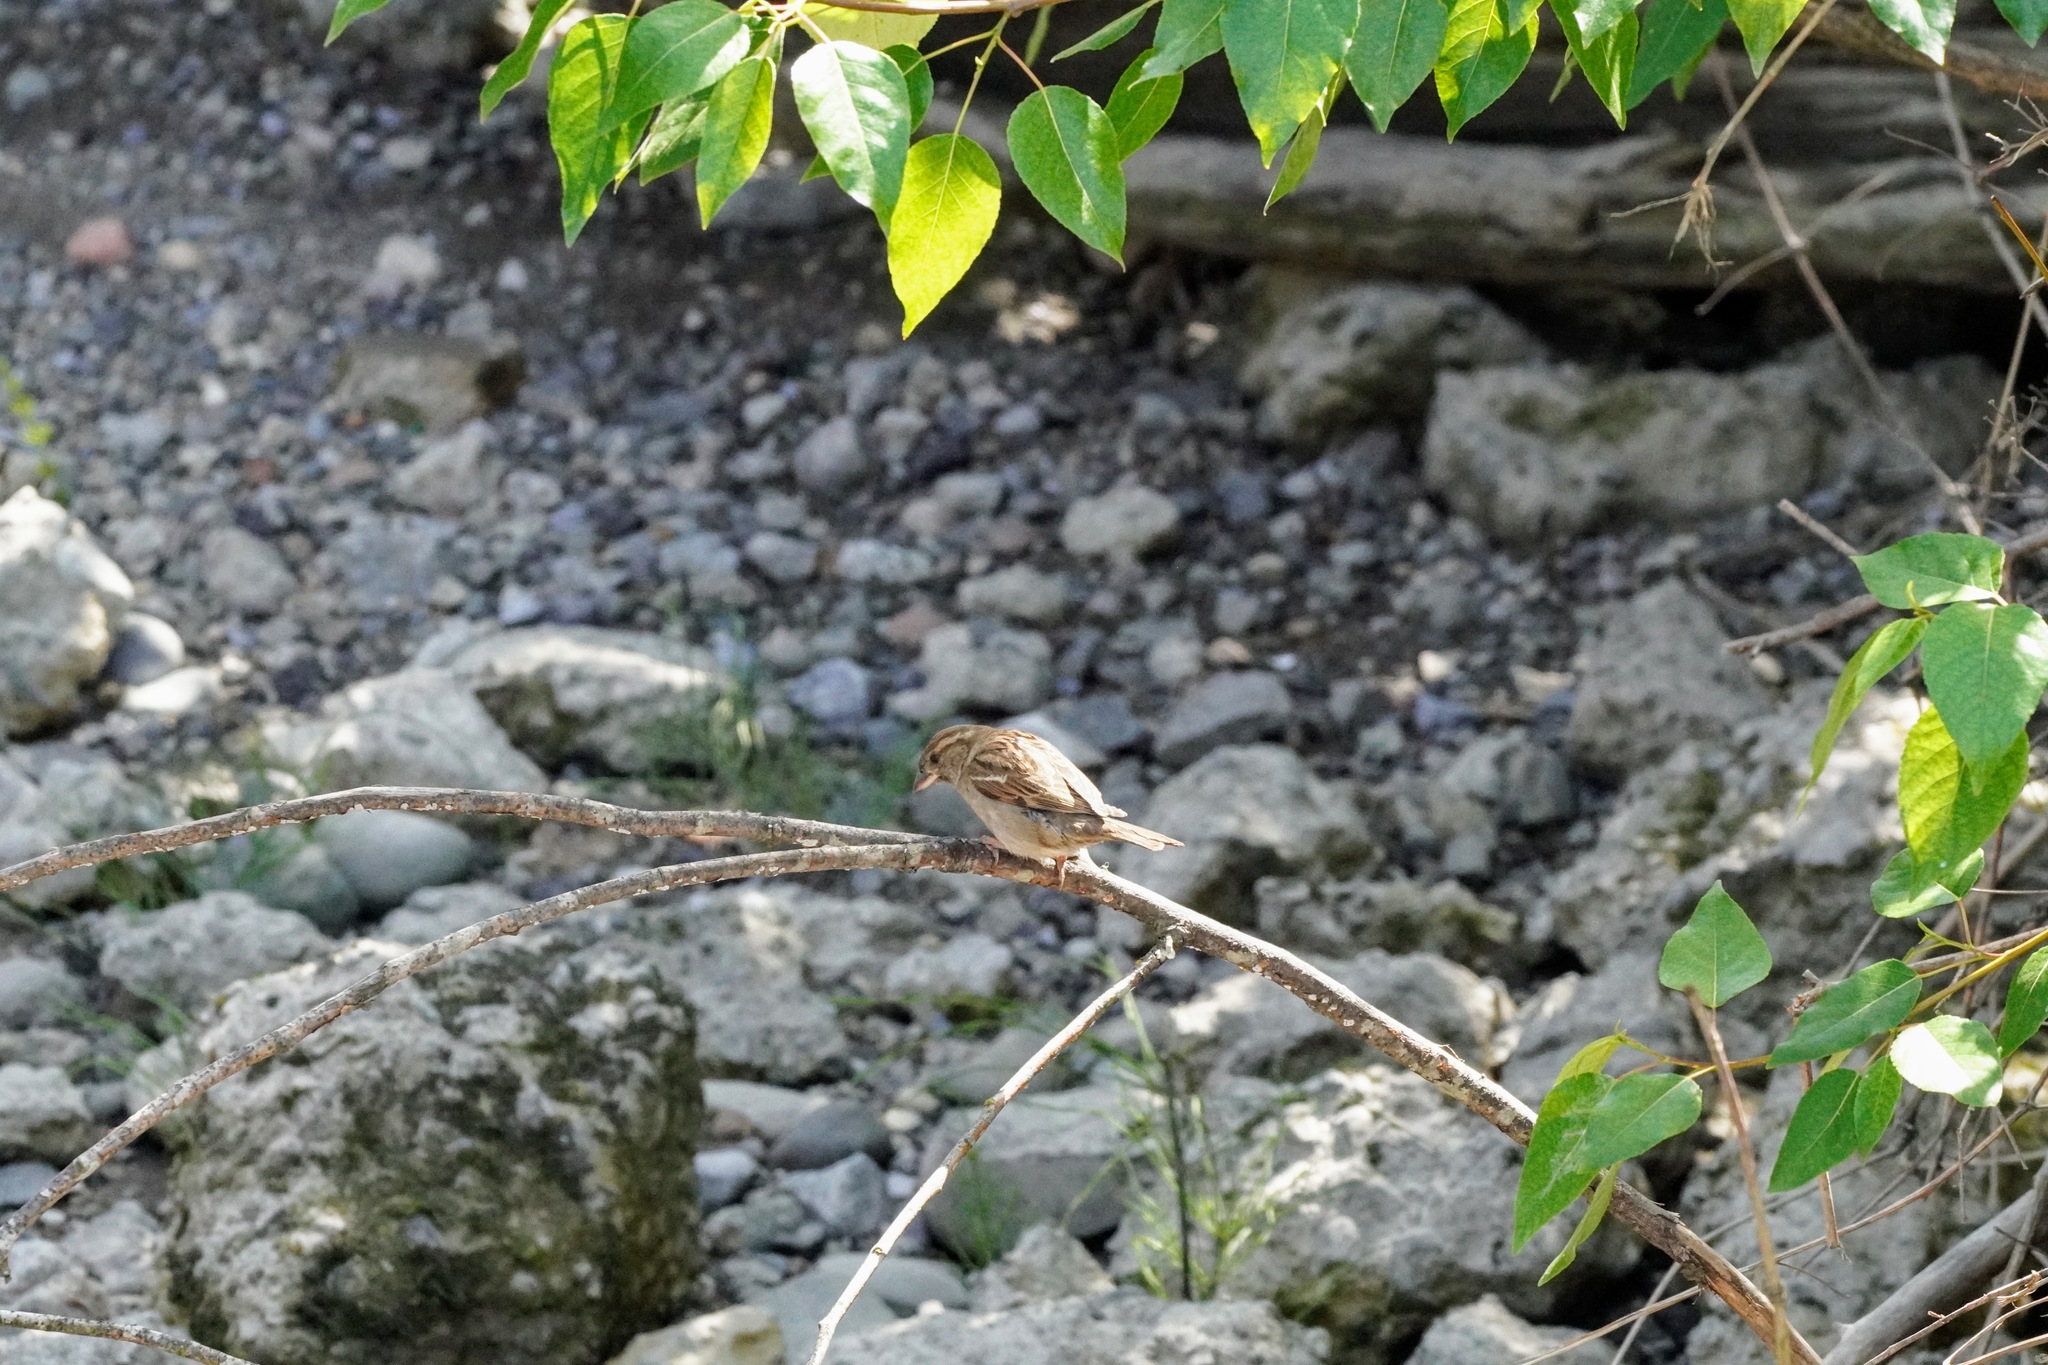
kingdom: Animalia
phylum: Chordata
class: Aves
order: Passeriformes
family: Passeridae
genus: Passer
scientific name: Passer domesticus
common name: House sparrow
